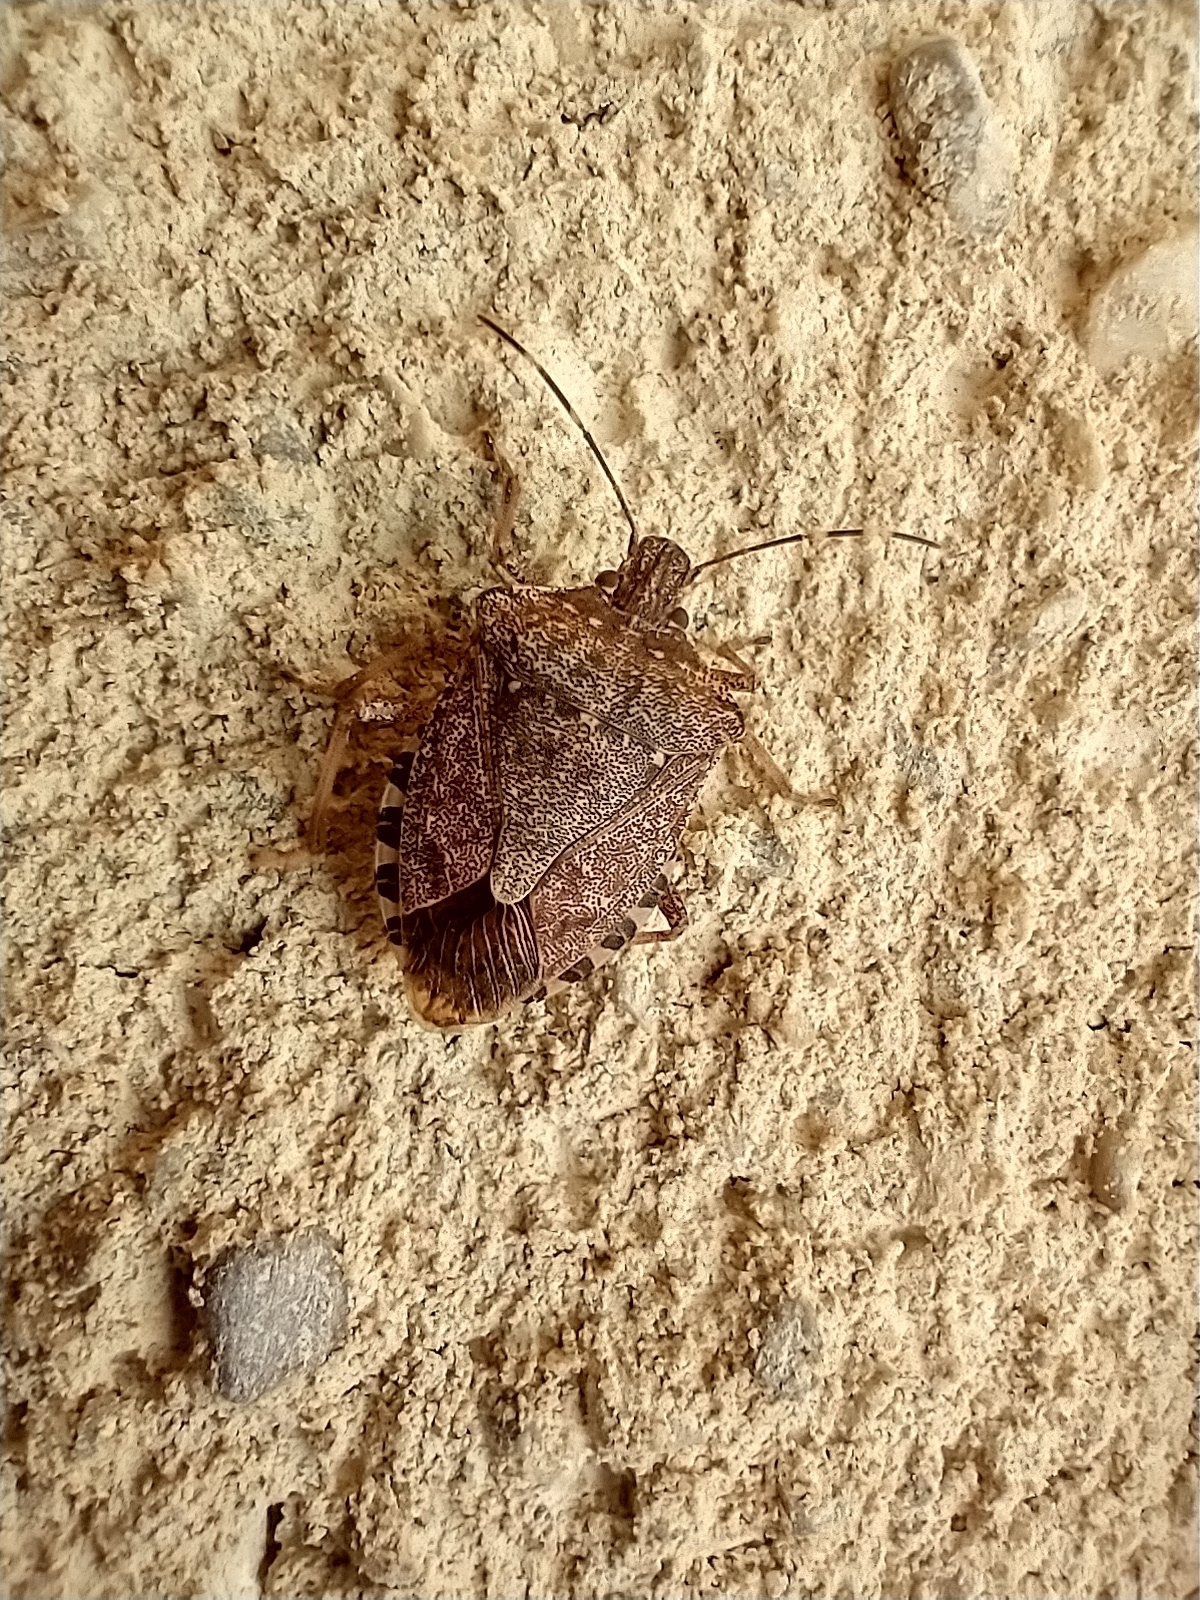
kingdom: Animalia
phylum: Arthropoda
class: Insecta
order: Hemiptera
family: Pentatomidae
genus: Halyomorpha
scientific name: Halyomorpha halys
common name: Brown marmorated stink bug
